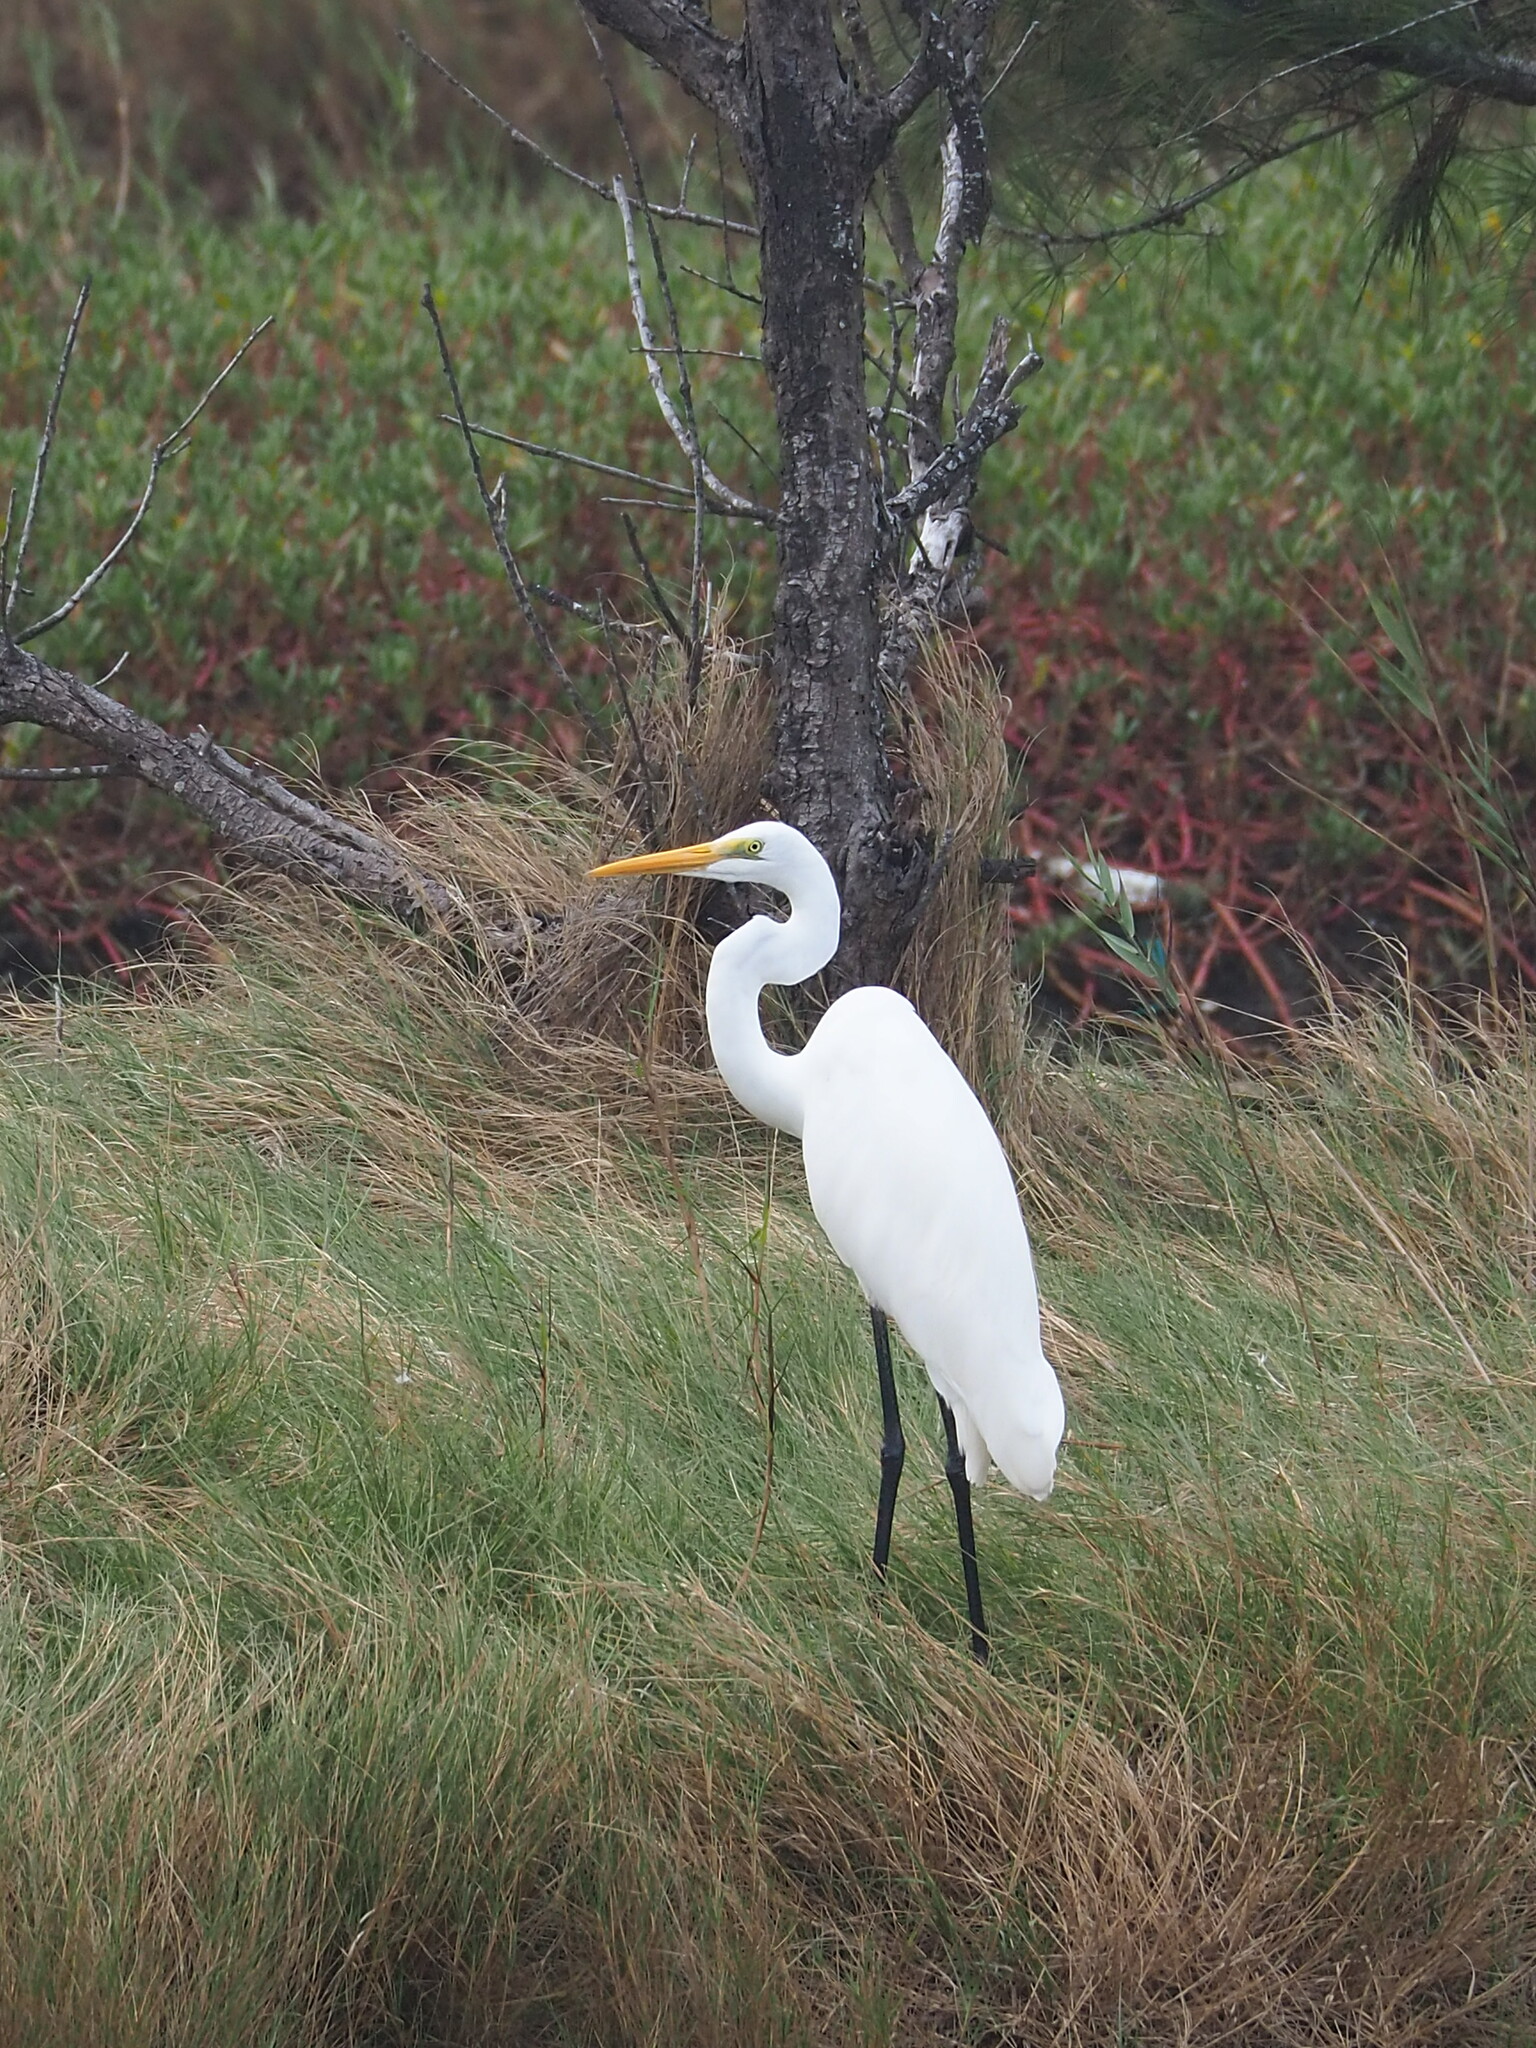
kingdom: Animalia
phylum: Chordata
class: Aves
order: Pelecaniformes
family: Ardeidae
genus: Ardea
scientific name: Ardea alba
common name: Great egret
